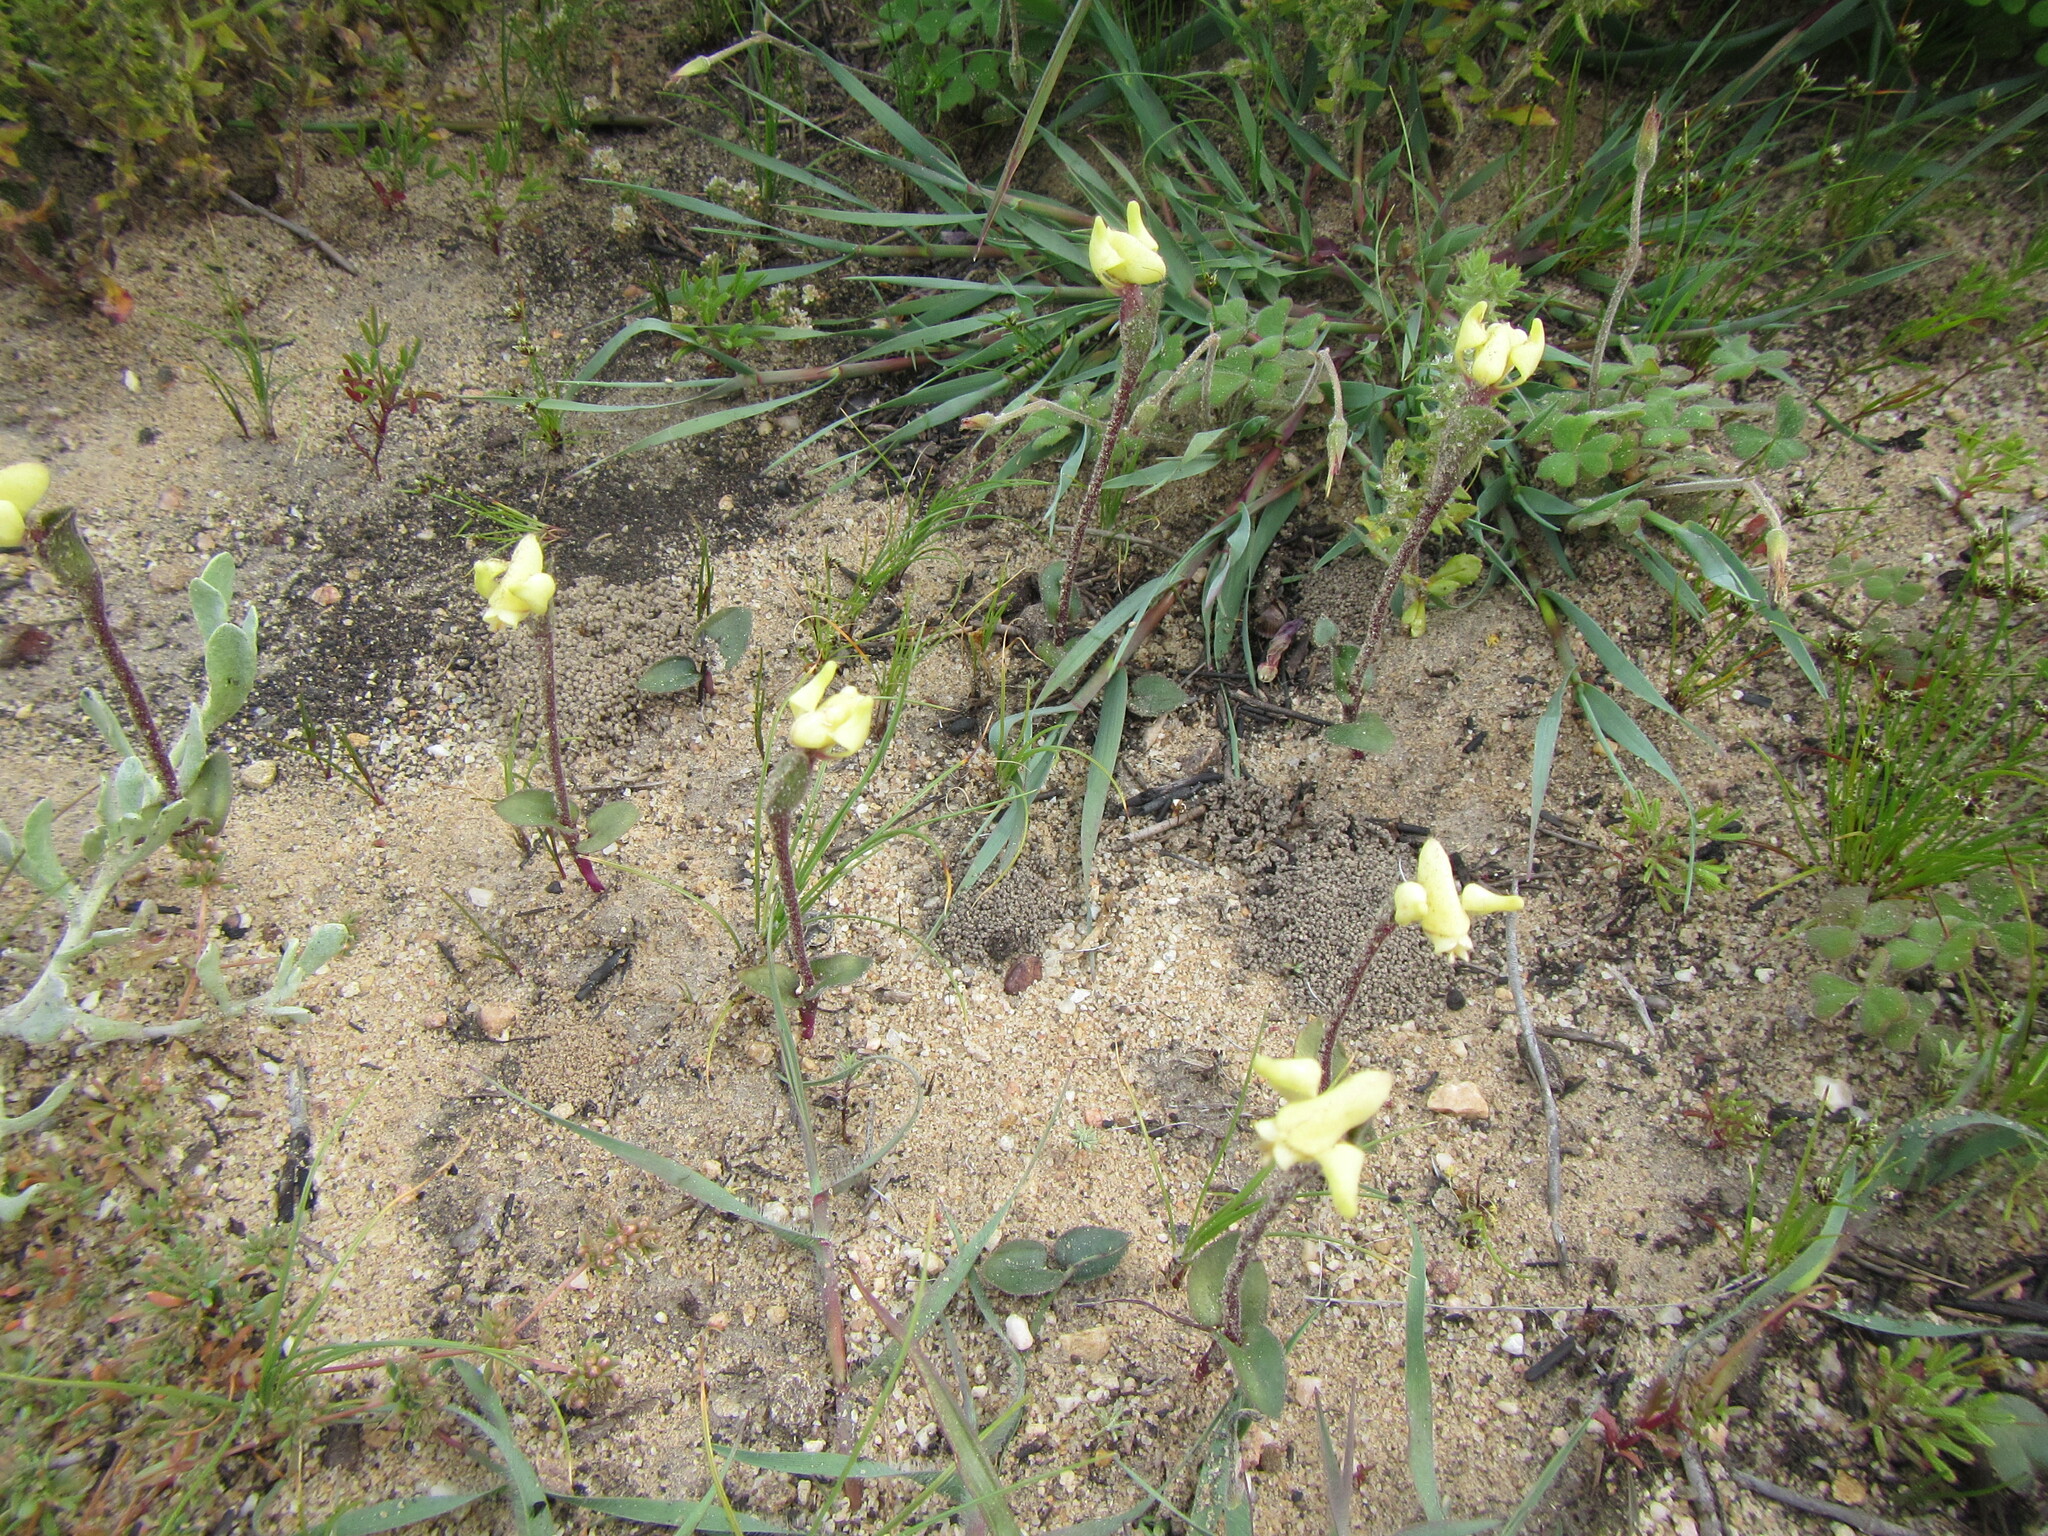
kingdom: Plantae
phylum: Tracheophyta
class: Liliopsida
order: Asparagales
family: Orchidaceae
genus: Disperis
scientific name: Disperis villosa
